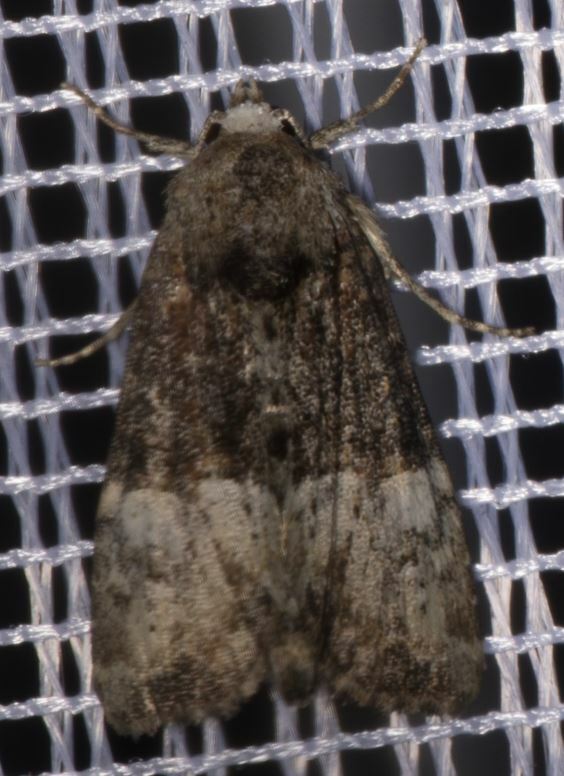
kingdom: Animalia
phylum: Arthropoda
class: Insecta
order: Lepidoptera
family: Noctuidae
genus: Mesoligia
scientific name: Mesoligia furuncula
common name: Cloaked minor
